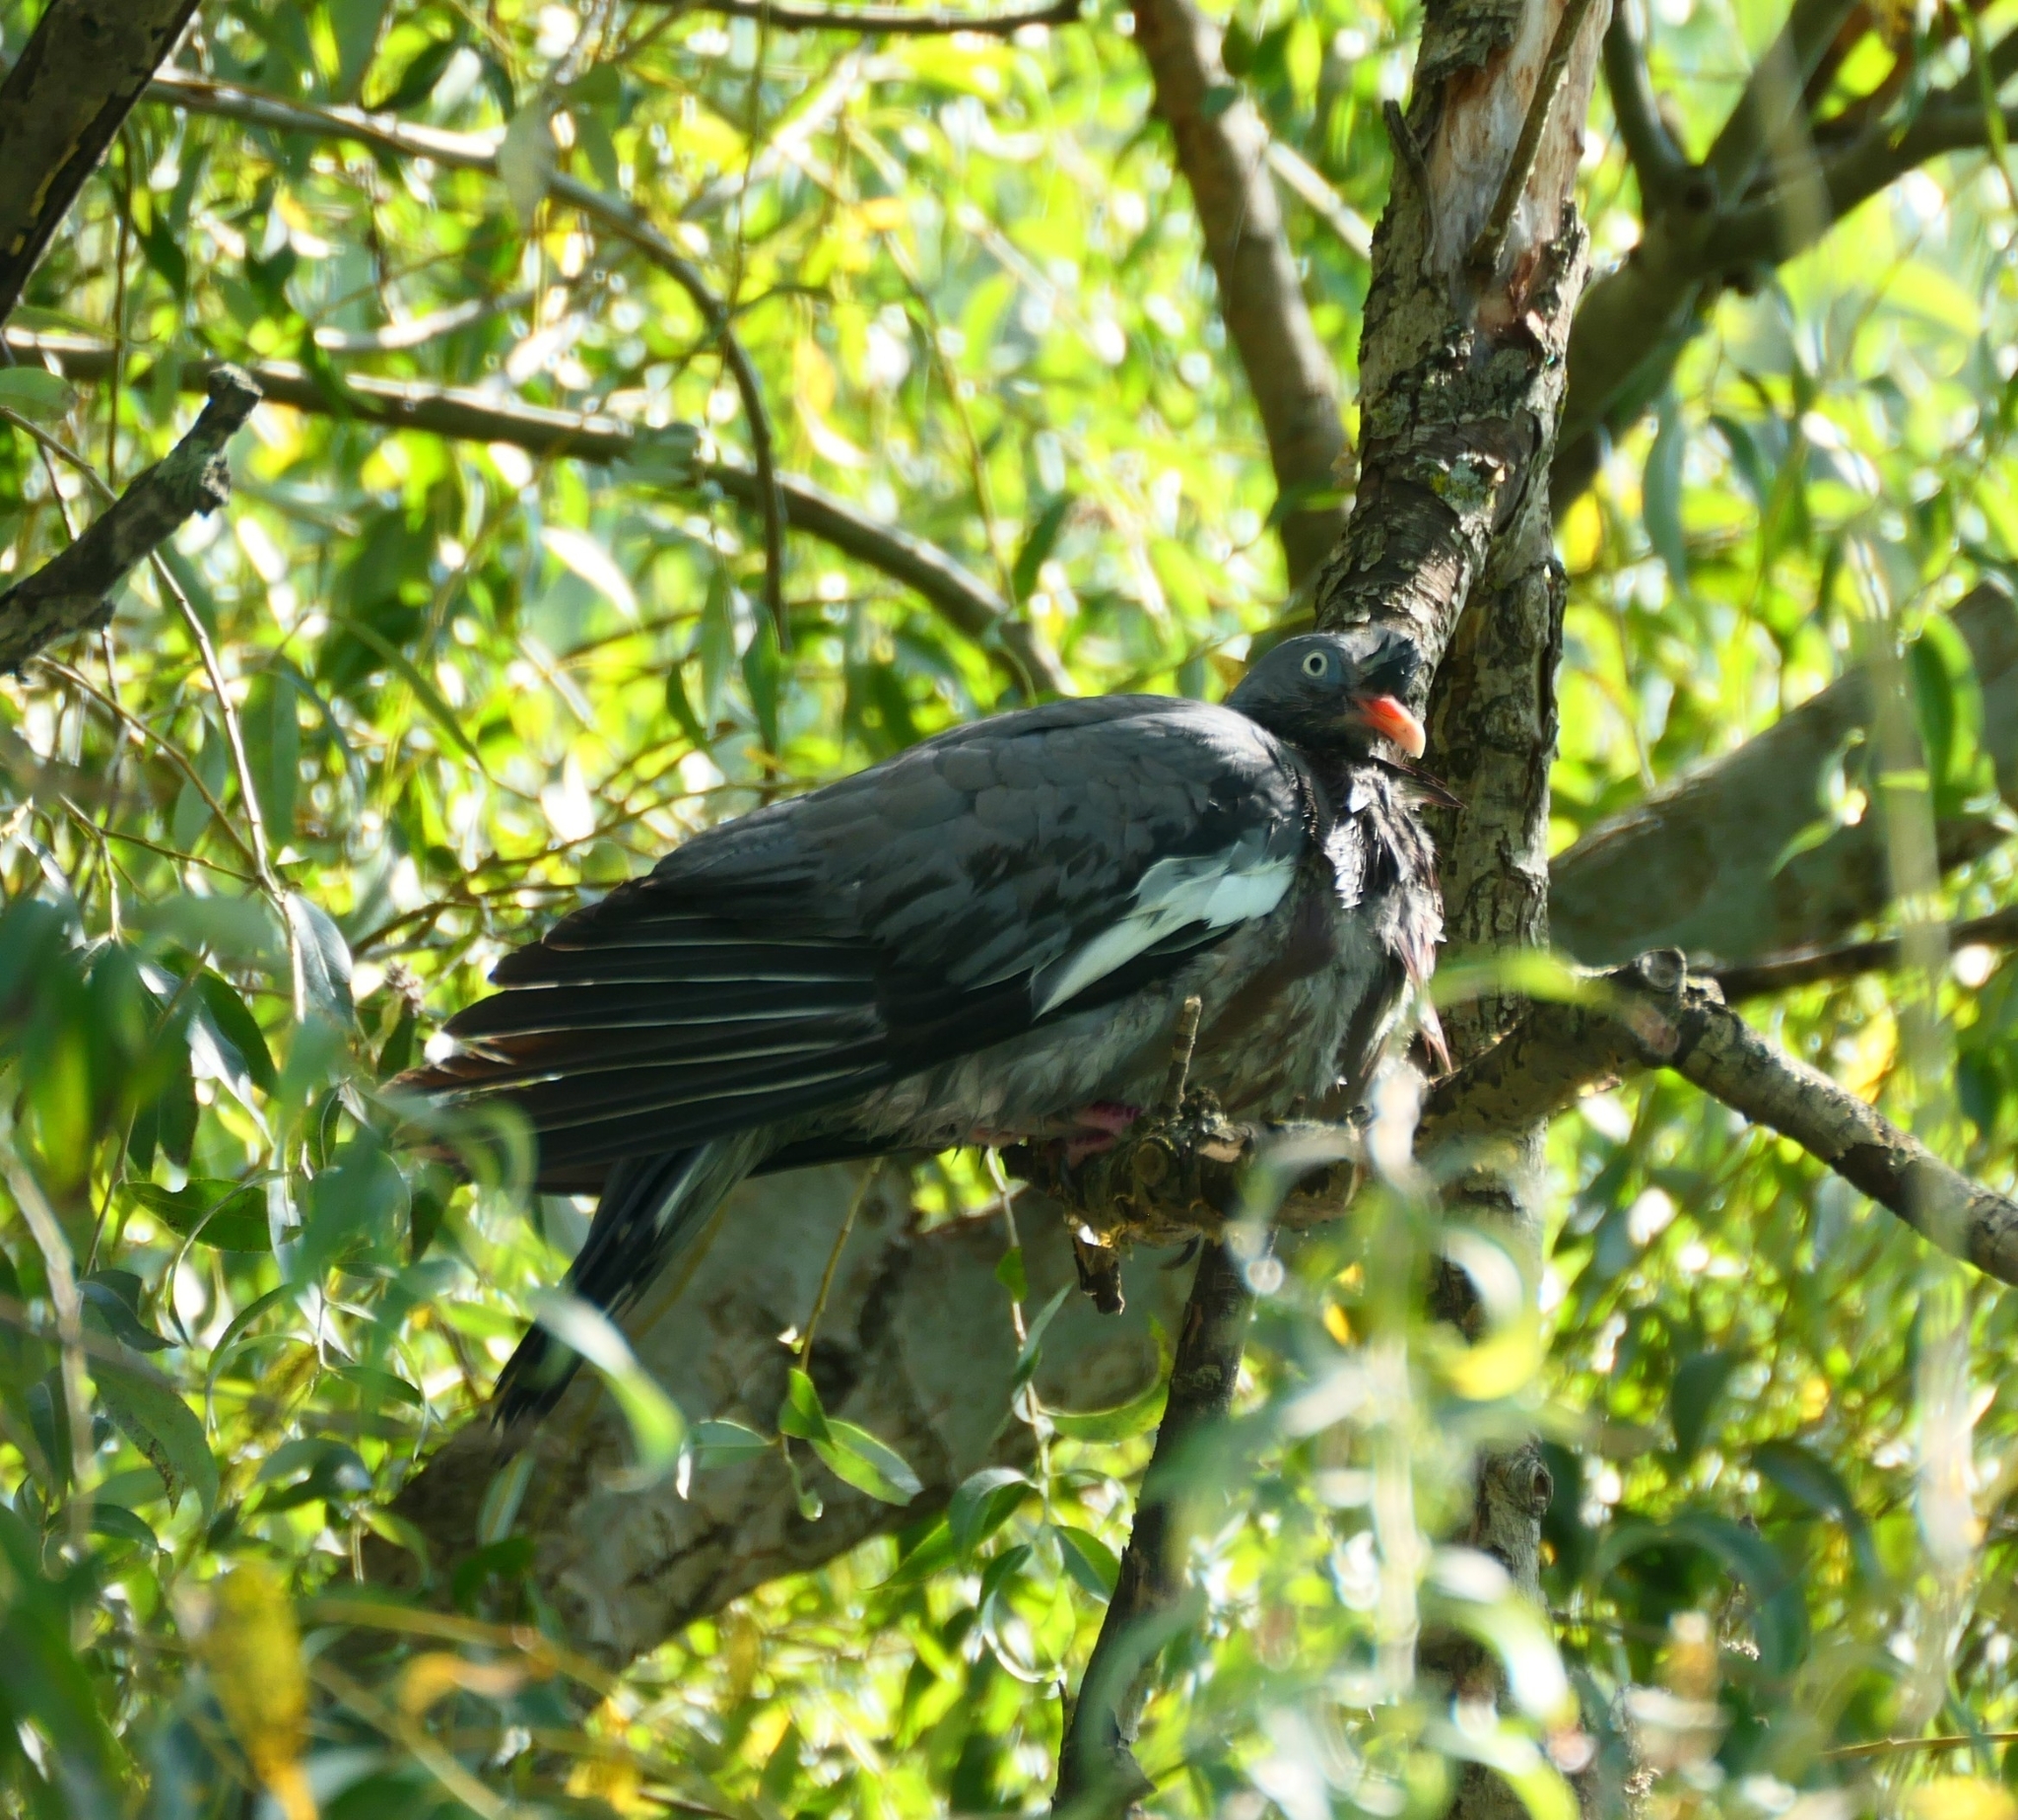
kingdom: Animalia
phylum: Chordata
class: Aves
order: Columbiformes
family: Columbidae
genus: Columba
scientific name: Columba palumbus
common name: Common wood pigeon
